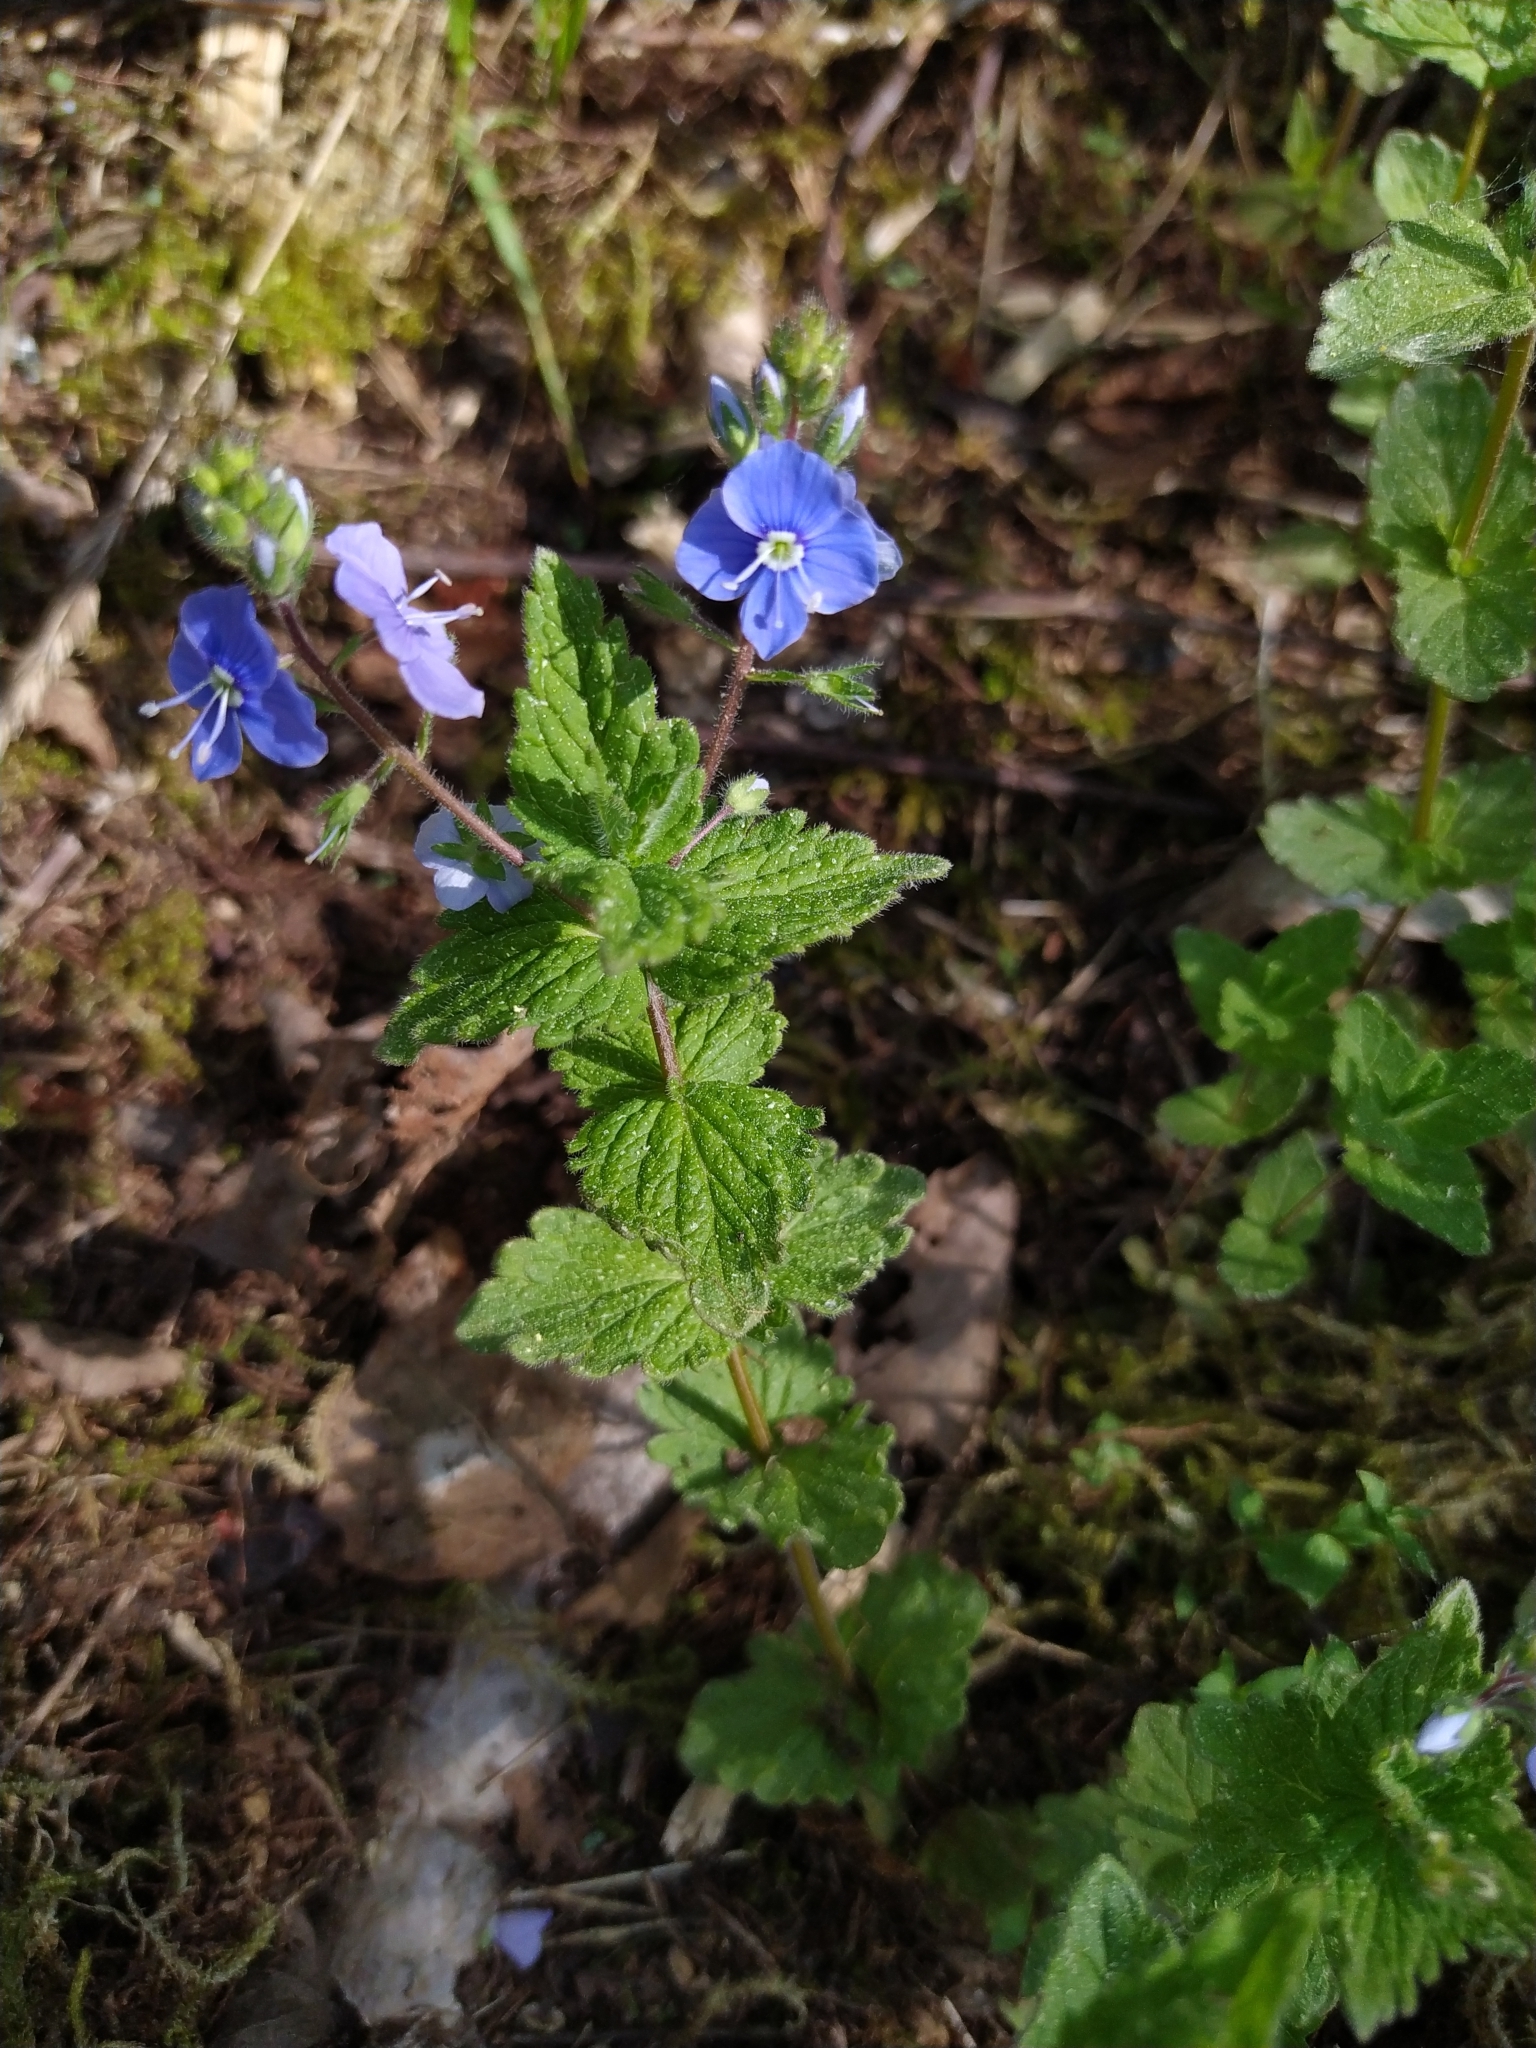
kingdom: Plantae
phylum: Tracheophyta
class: Magnoliopsida
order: Lamiales
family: Plantaginaceae
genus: Veronica
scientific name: Veronica chamaedrys
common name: Germander speedwell
